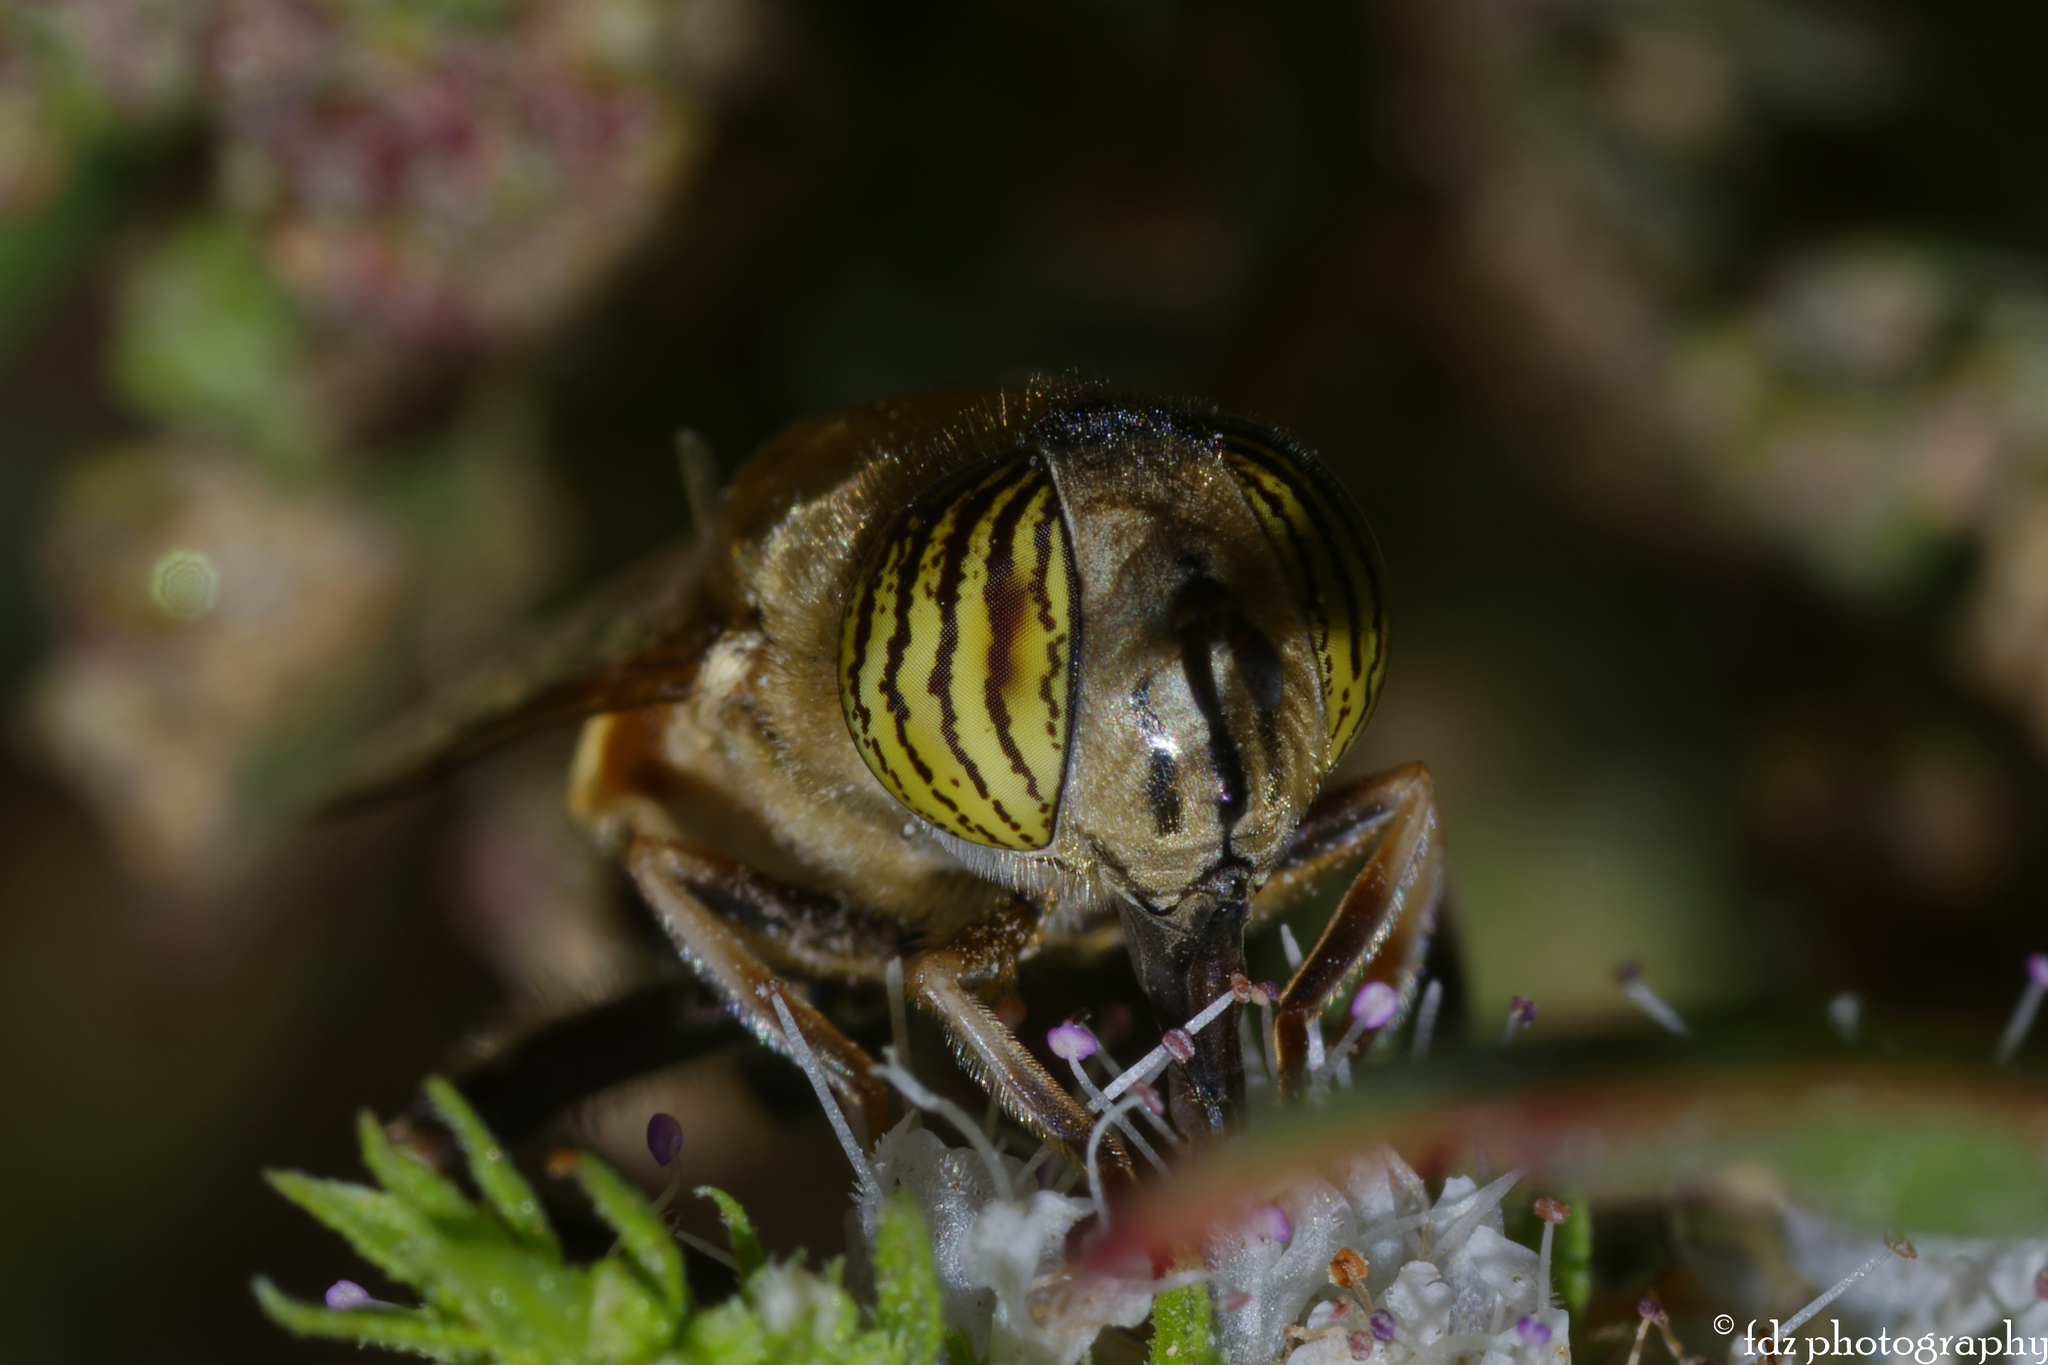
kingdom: Animalia
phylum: Arthropoda
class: Insecta
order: Diptera
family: Syrphidae
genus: Eristalinus
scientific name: Eristalinus taeniops
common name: Syrphid fly
